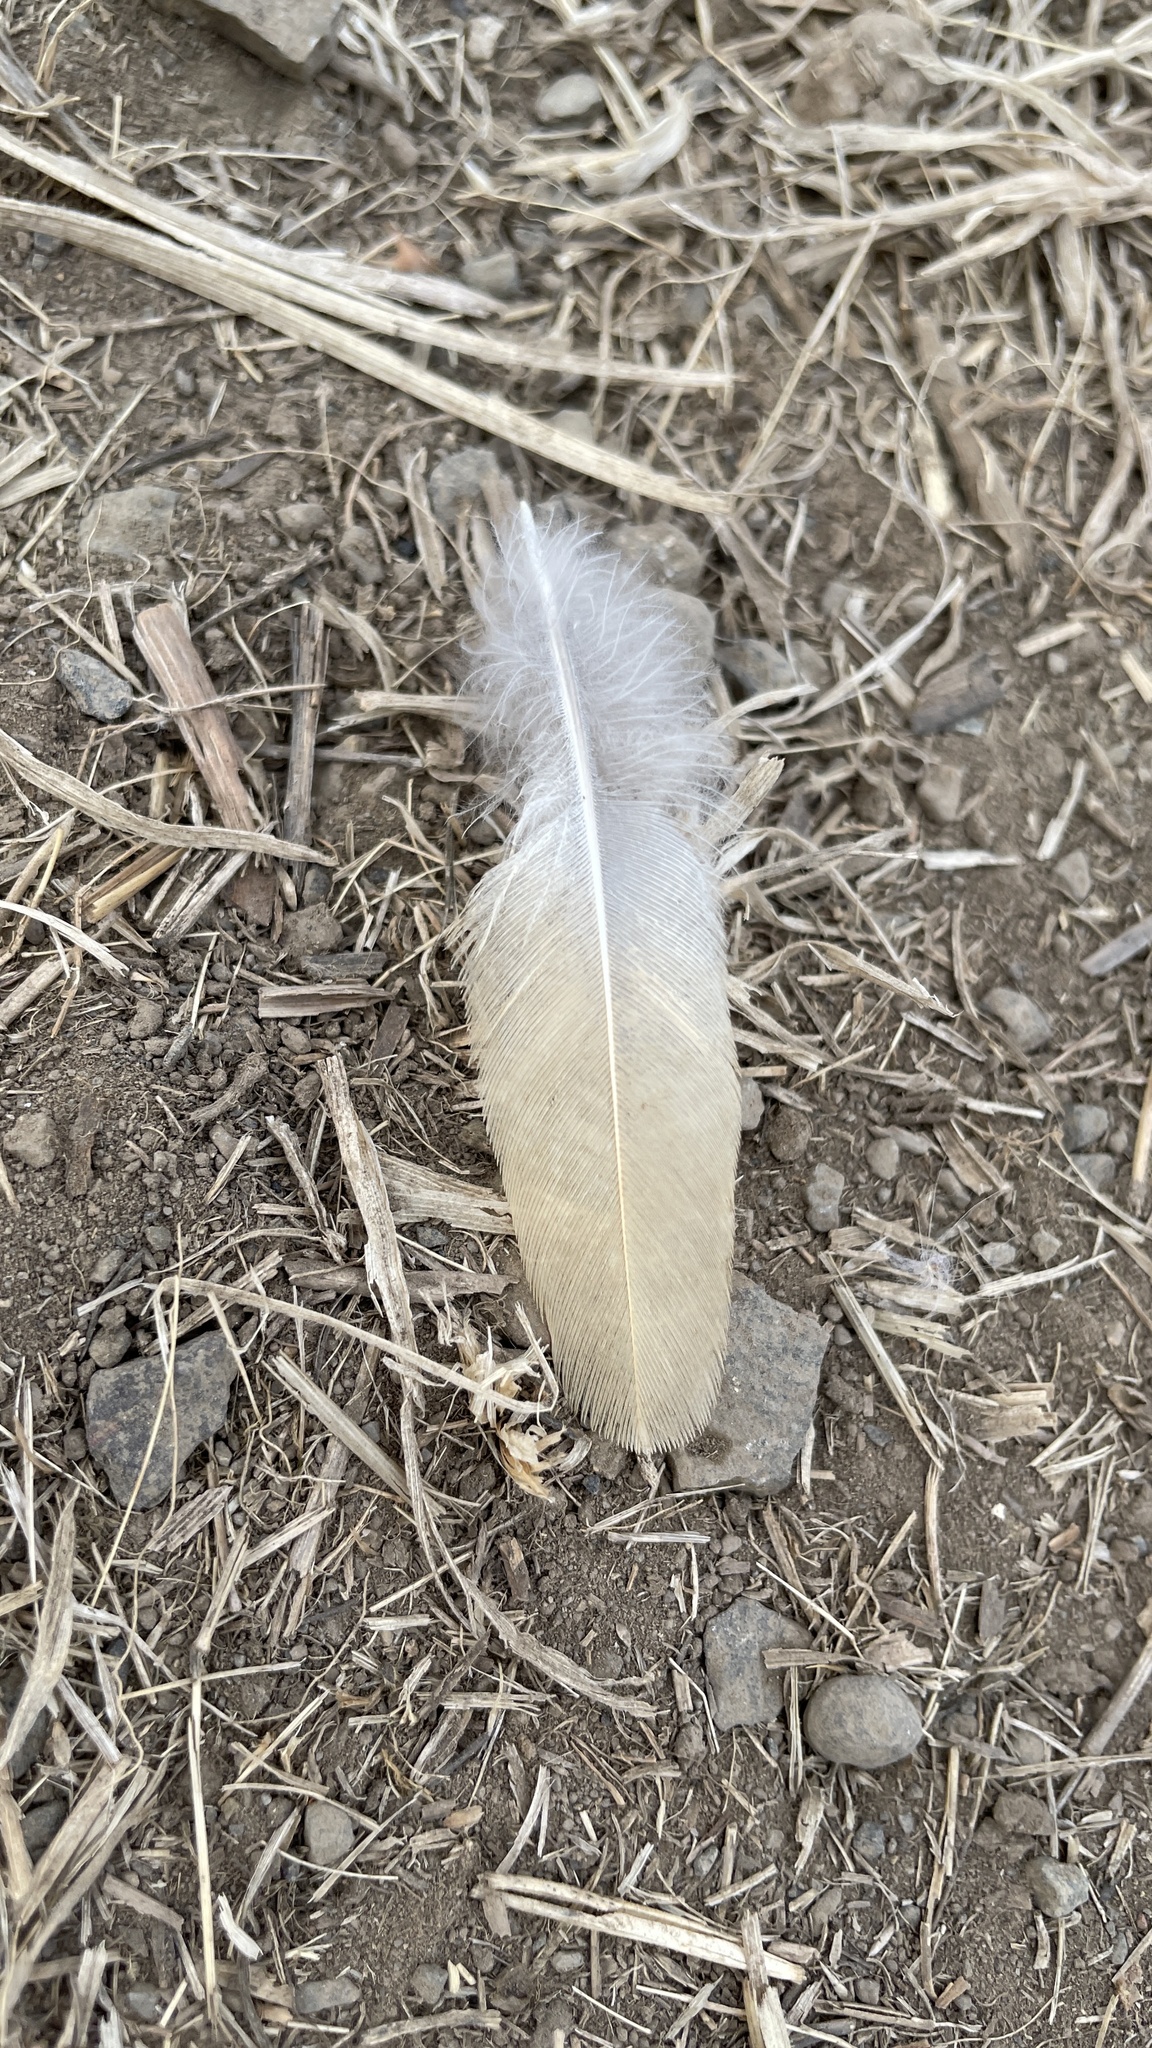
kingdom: Animalia
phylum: Chordata
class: Aves
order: Columbiformes
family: Columbidae
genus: Zenaida
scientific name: Zenaida macroura
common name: Mourning dove
